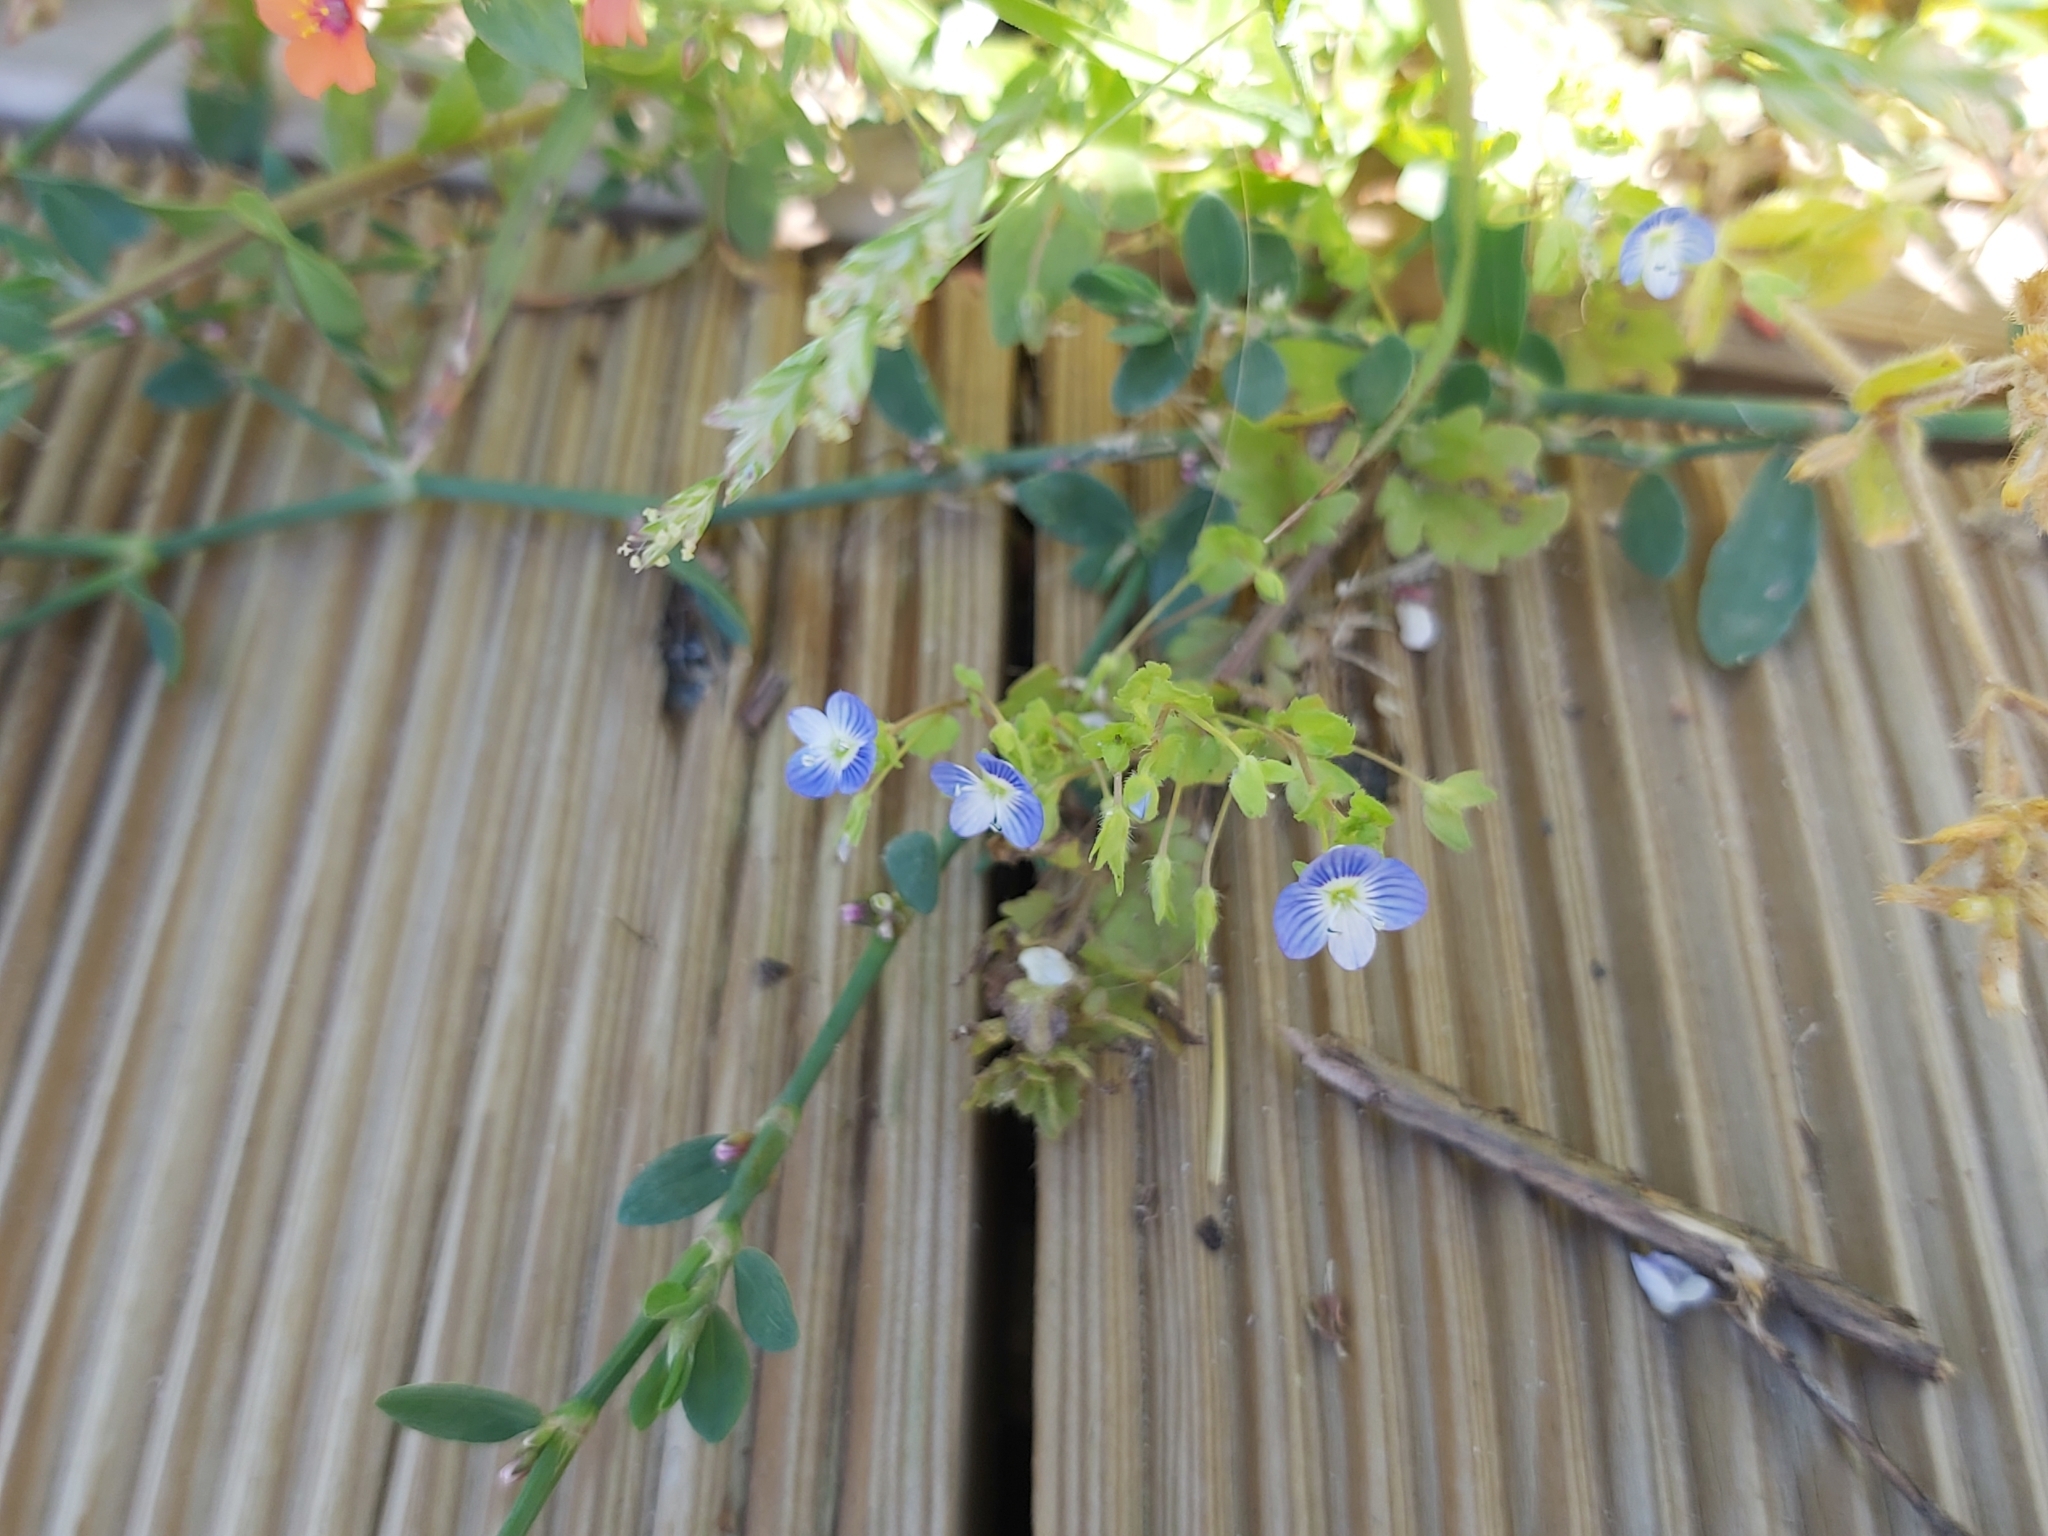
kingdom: Plantae
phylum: Tracheophyta
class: Magnoliopsida
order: Lamiales
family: Plantaginaceae
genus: Veronica
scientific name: Veronica persica
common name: Common field-speedwell
